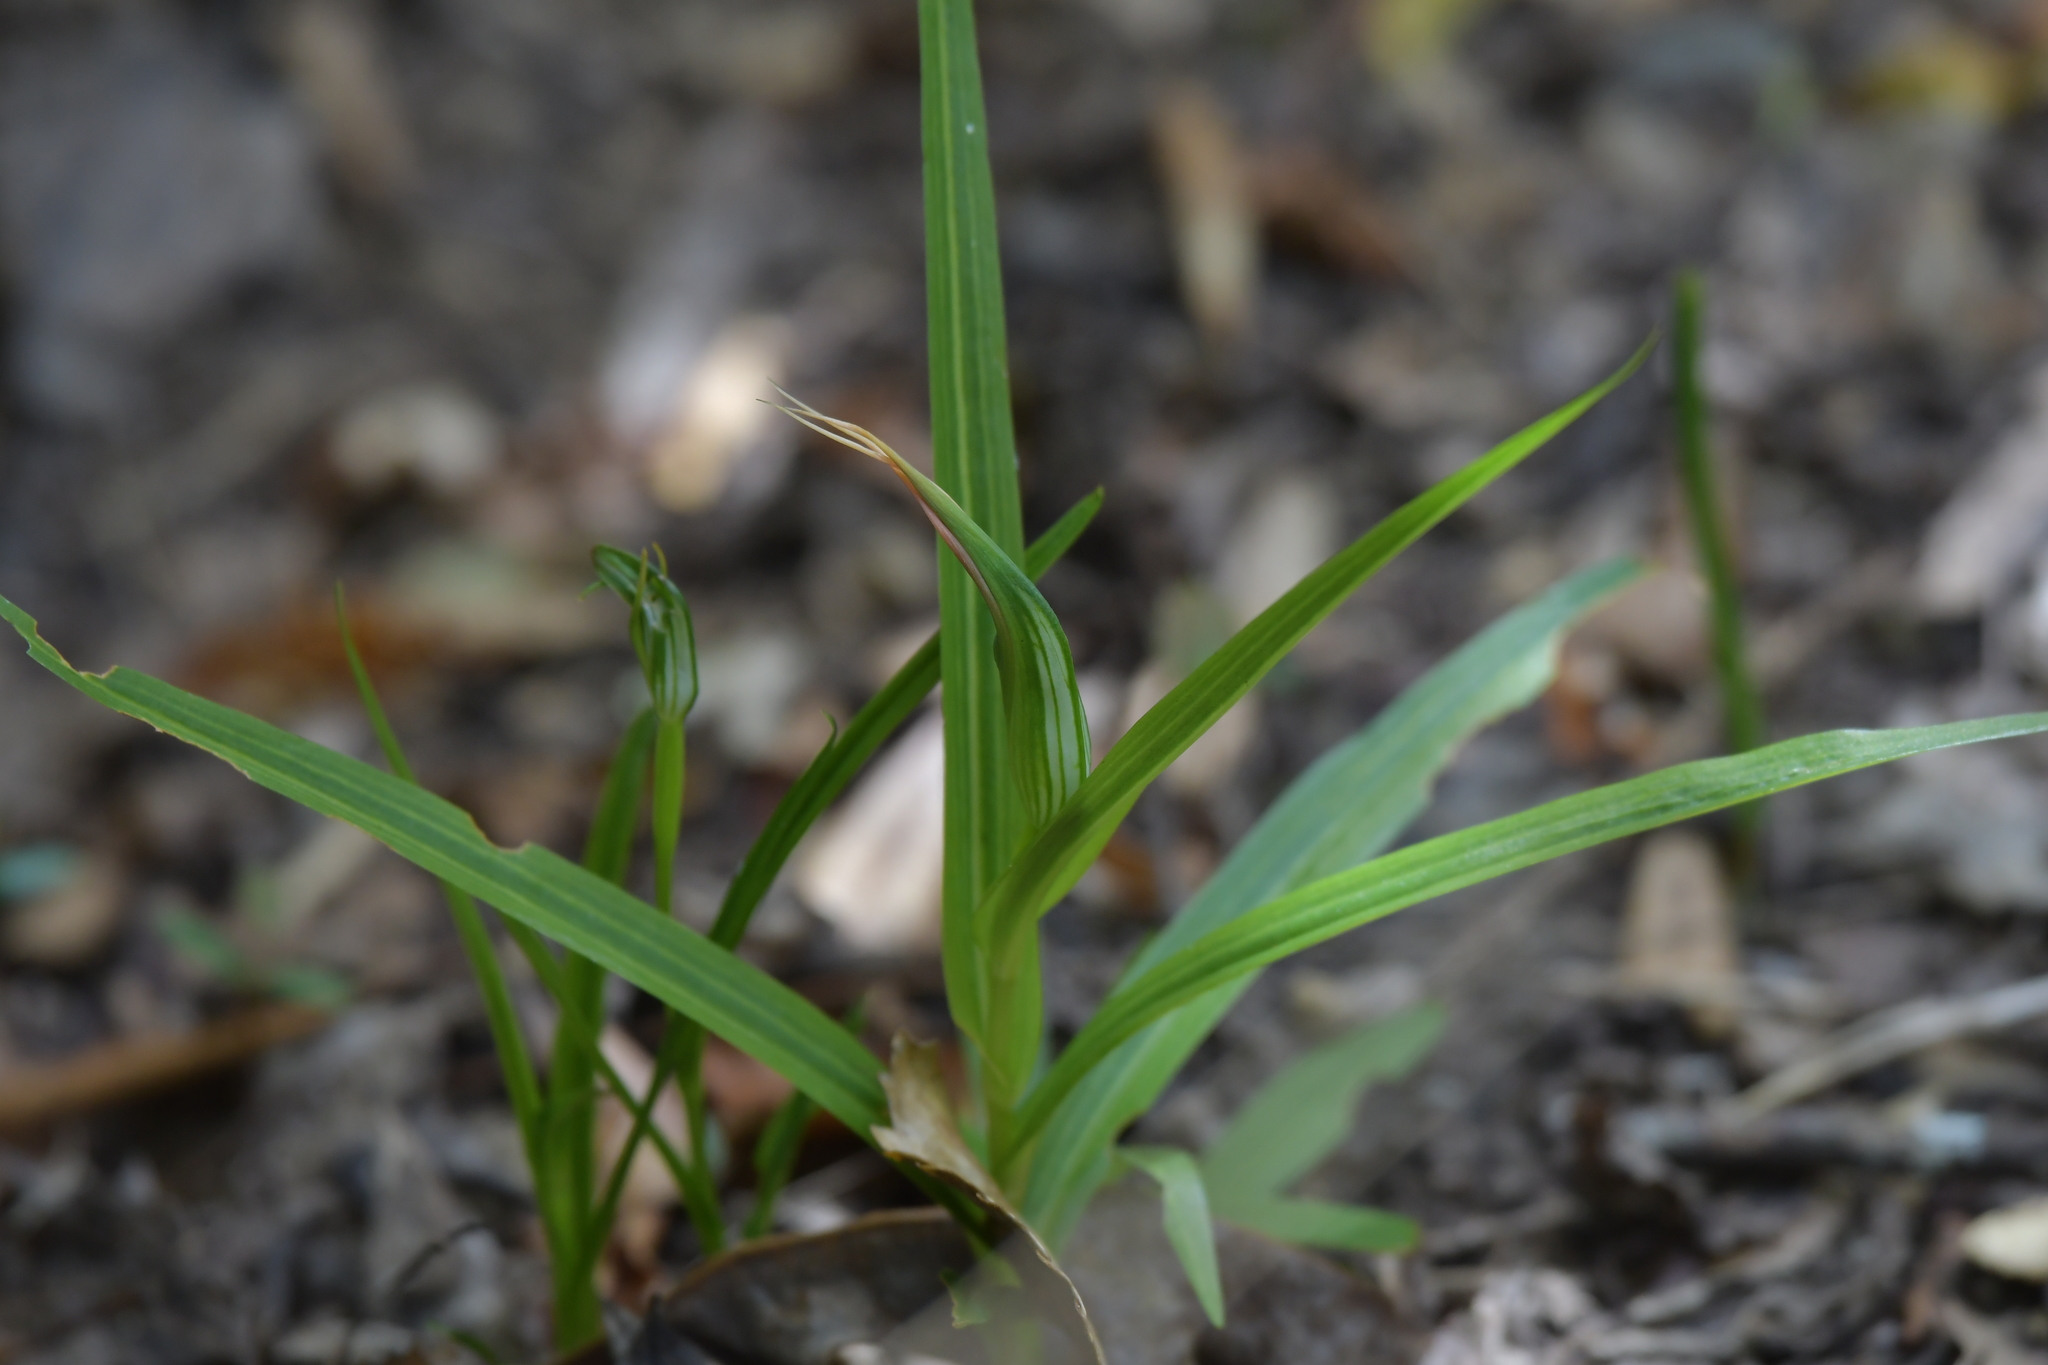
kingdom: Plantae
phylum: Tracheophyta
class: Liliopsida
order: Asparagales
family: Orchidaceae
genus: Pterostylis
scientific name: Pterostylis banksii
